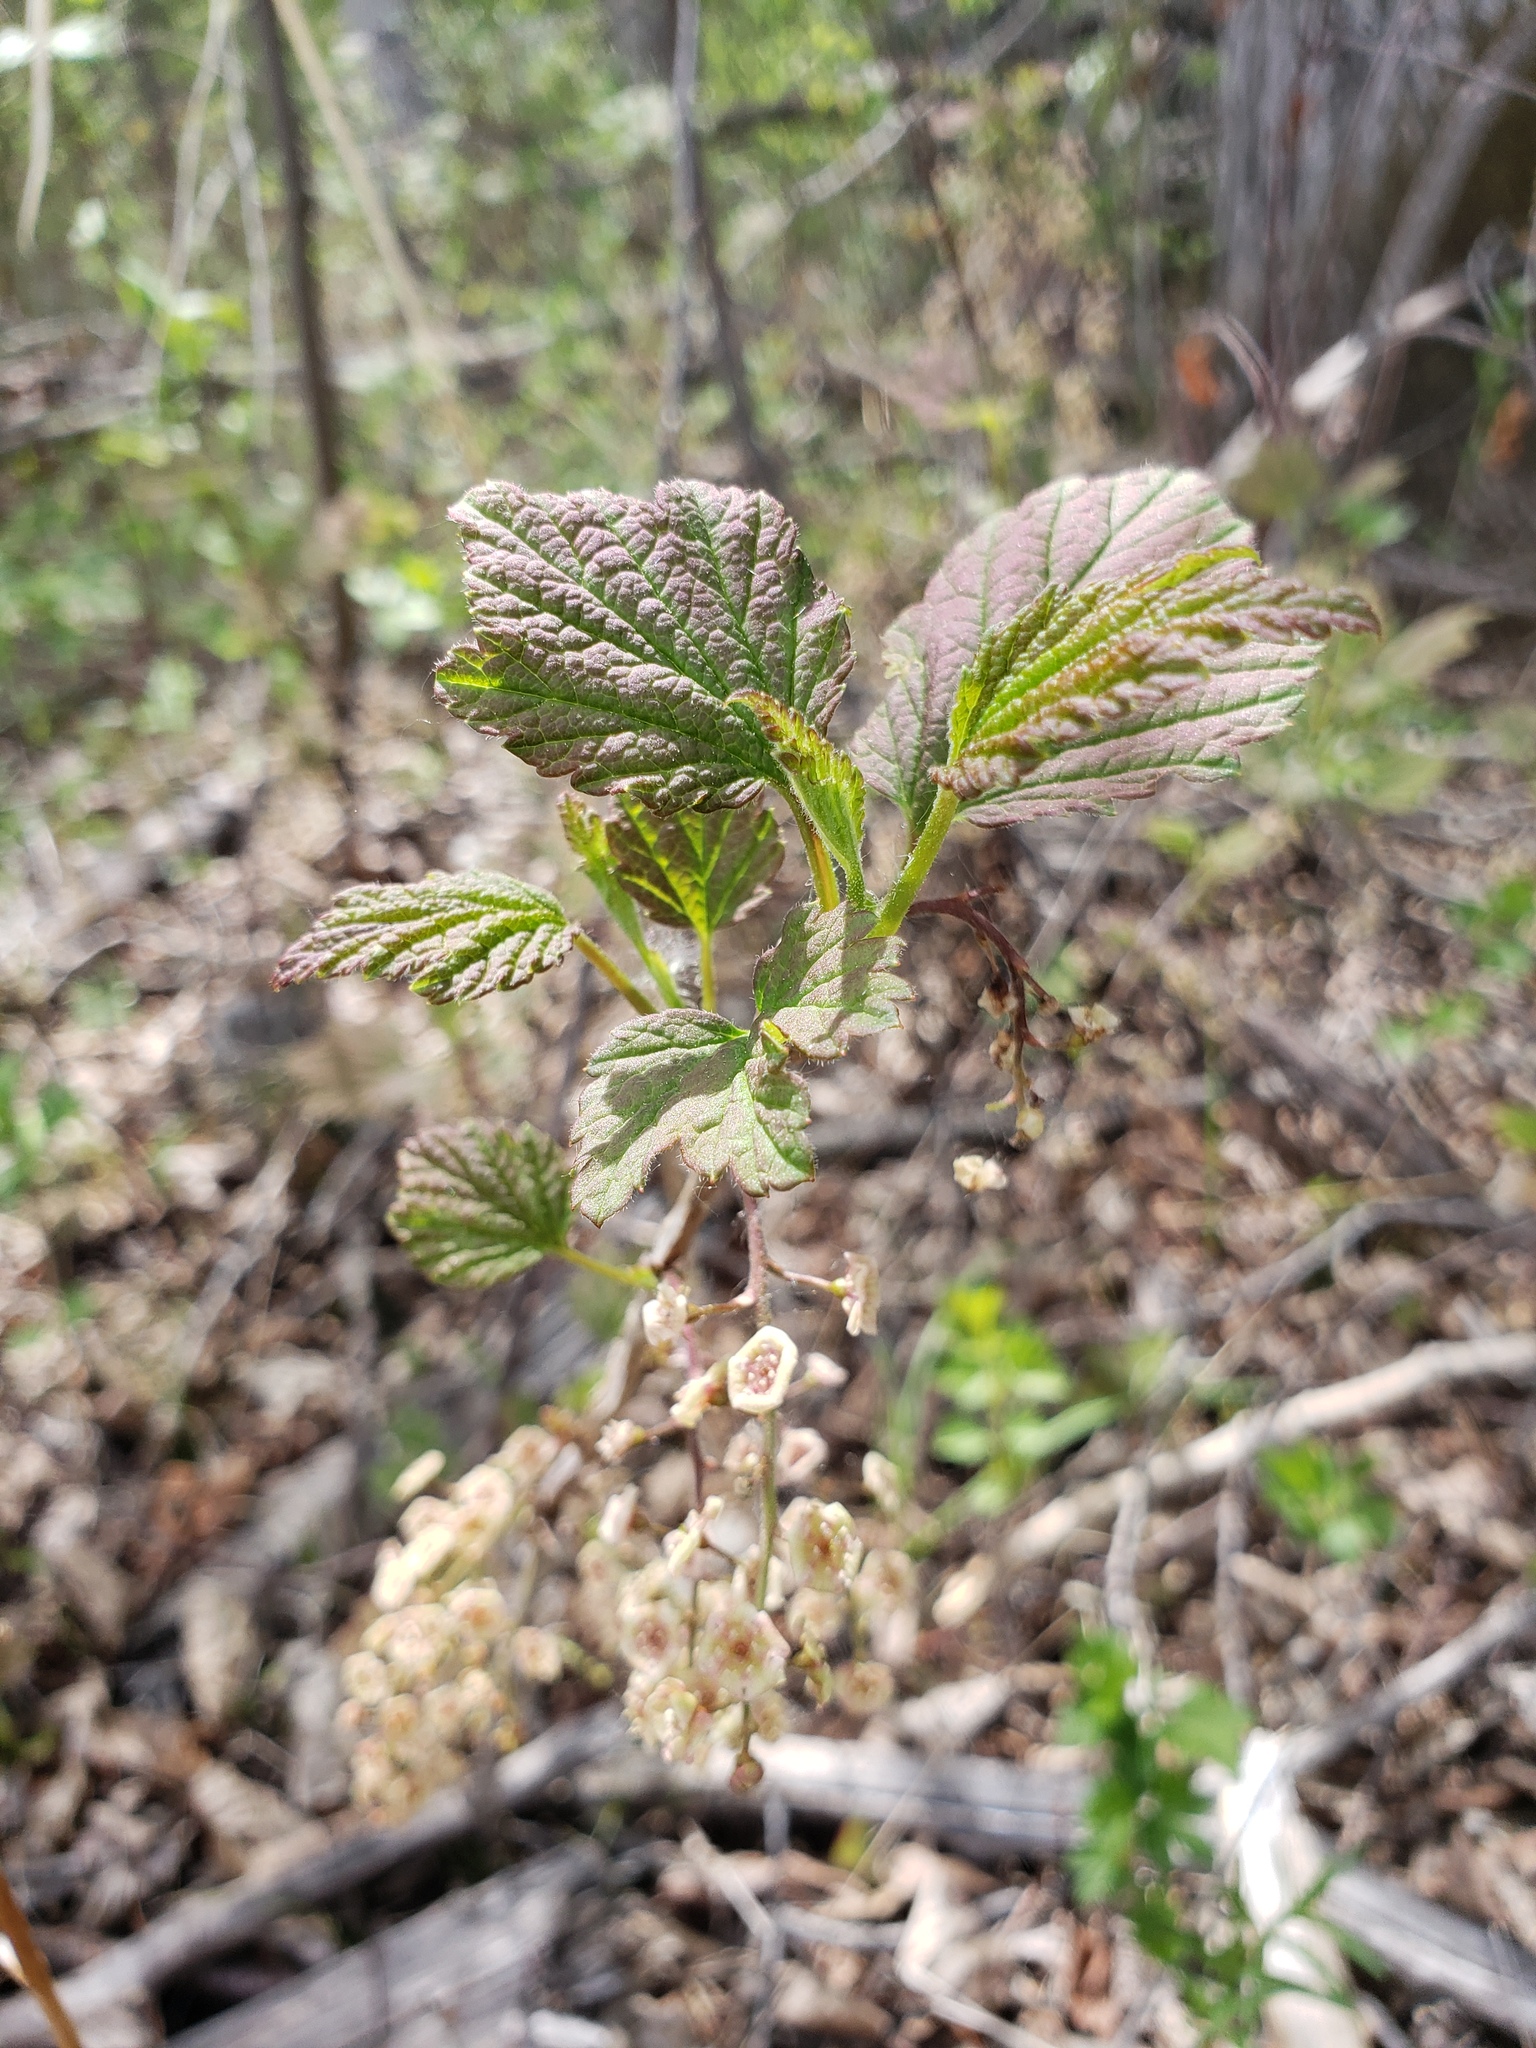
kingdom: Plantae
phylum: Tracheophyta
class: Magnoliopsida
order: Saxifragales
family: Grossulariaceae
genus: Ribes
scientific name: Ribes triste
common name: Swamp red currant
